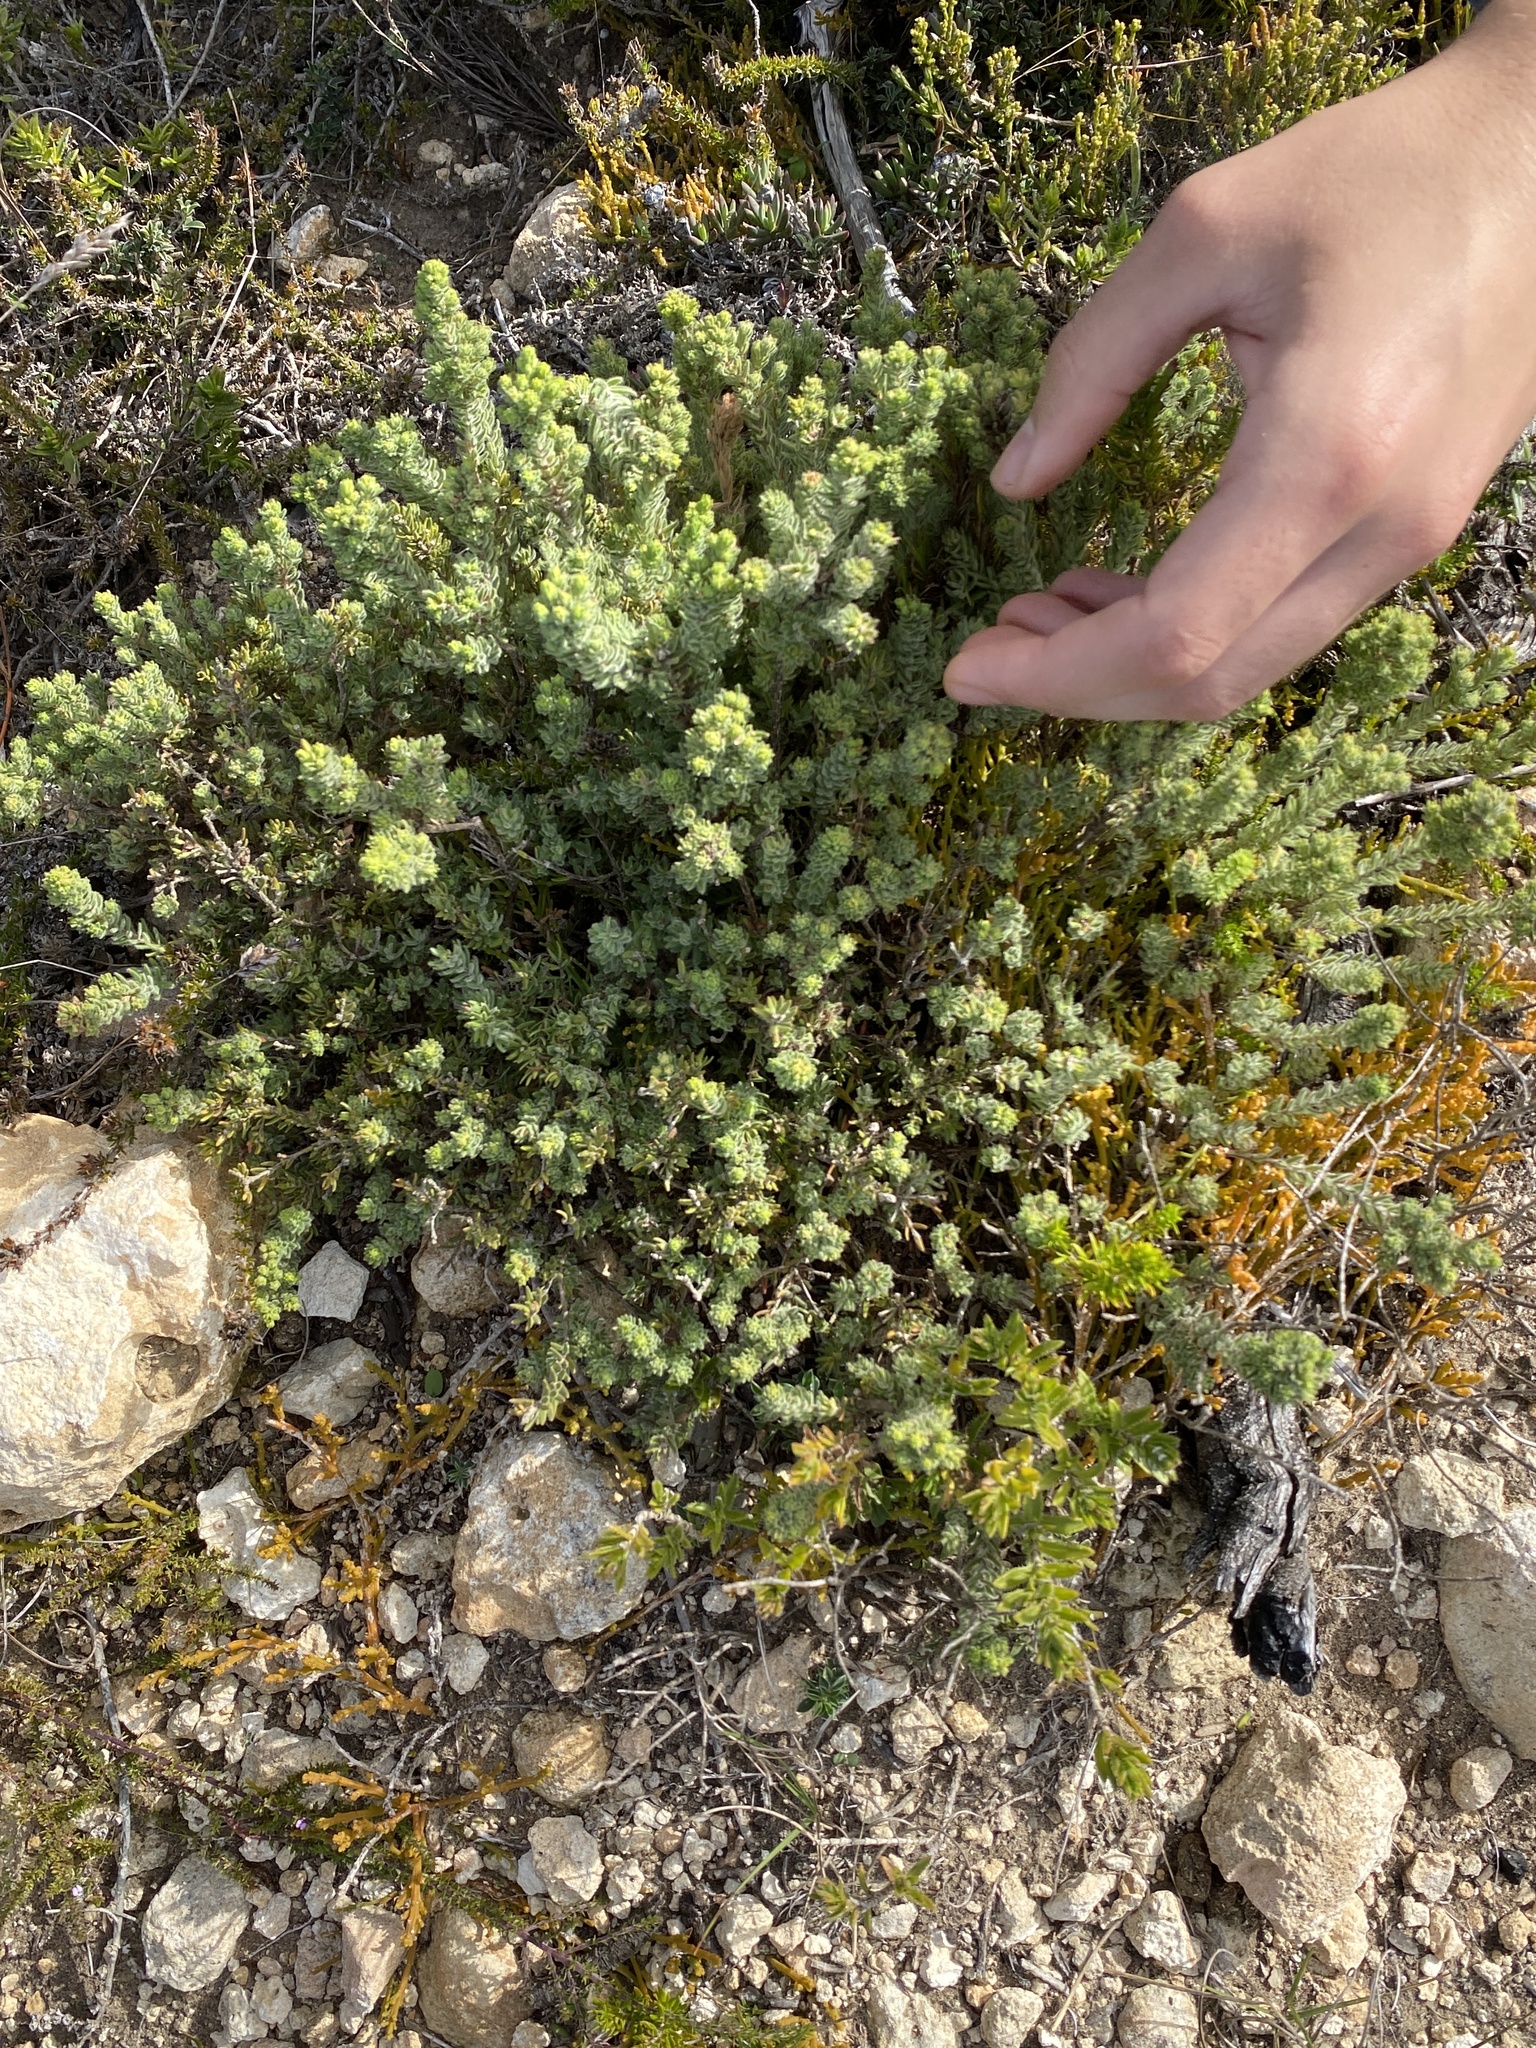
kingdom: Plantae
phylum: Tracheophyta
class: Magnoliopsida
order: Sapindales
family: Rutaceae
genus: Agathosma
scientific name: Agathosma robusta
